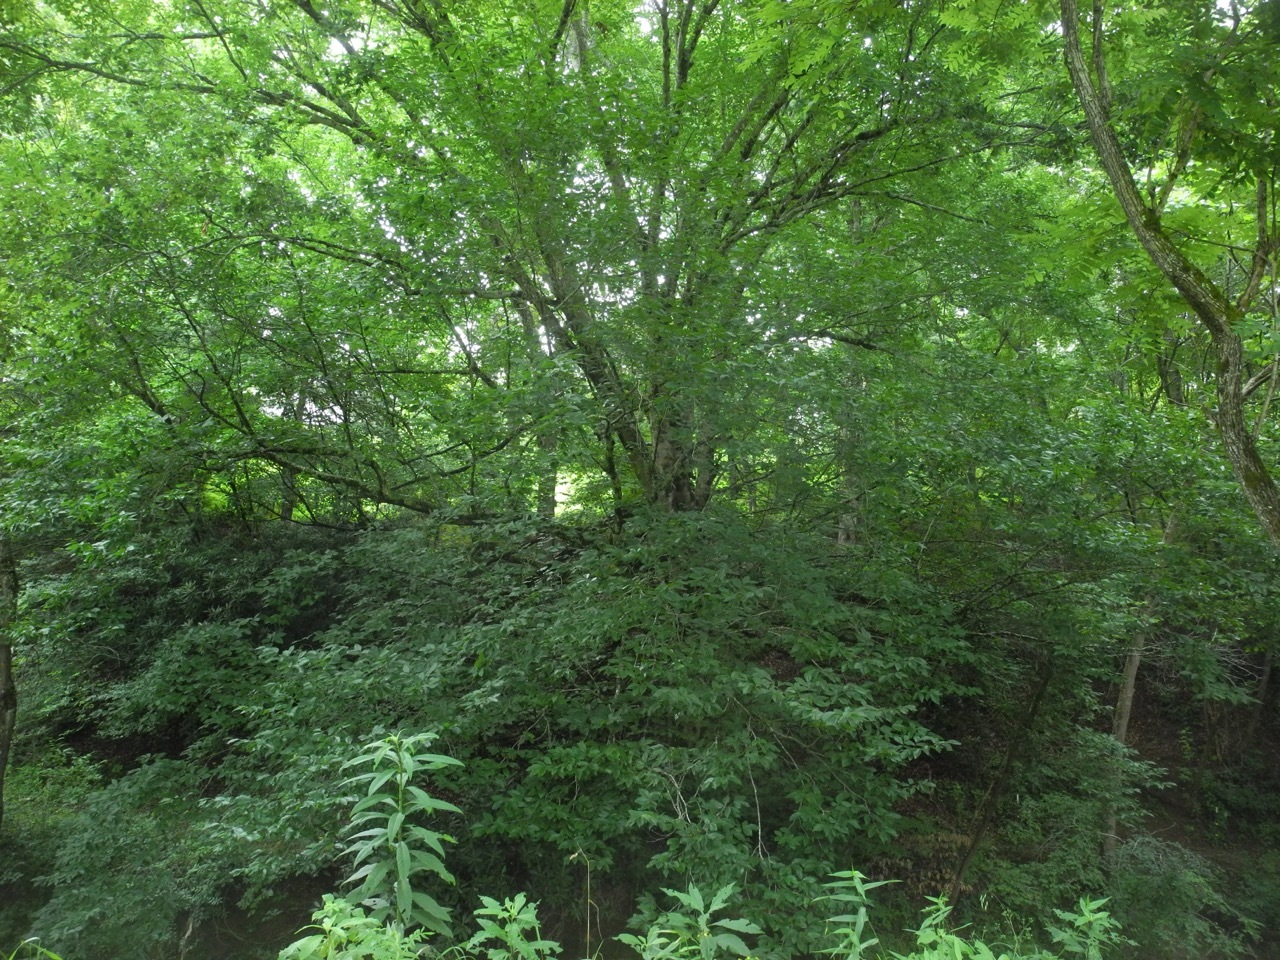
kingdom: Plantae
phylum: Tracheophyta
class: Magnoliopsida
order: Fagales
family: Fagaceae
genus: Fagus
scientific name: Fagus grandifolia
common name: American beech
